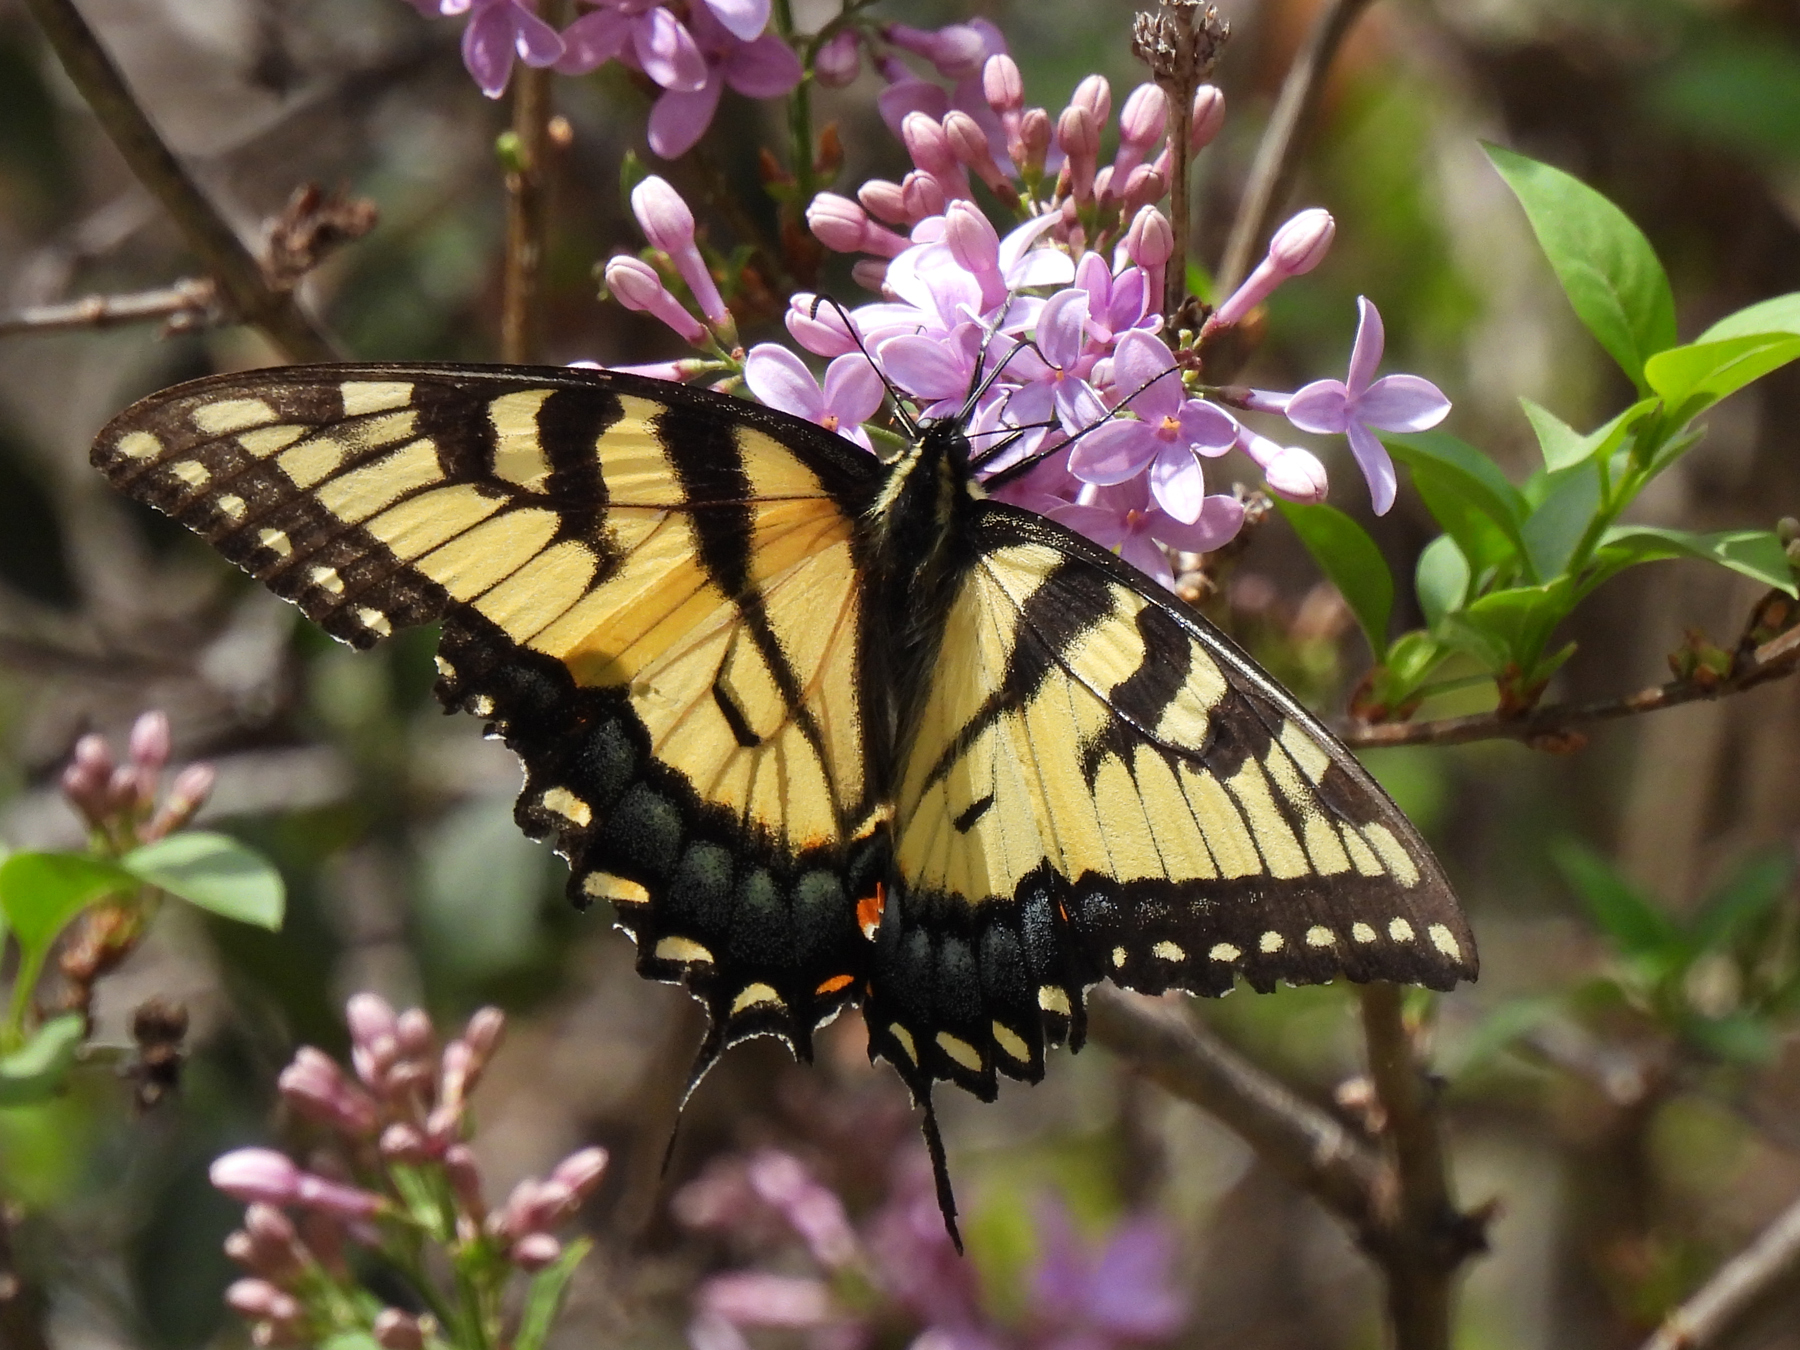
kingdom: Animalia
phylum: Arthropoda
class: Insecta
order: Lepidoptera
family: Papilionidae
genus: Papilio
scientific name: Papilio glaucus
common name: Tiger swallowtail
